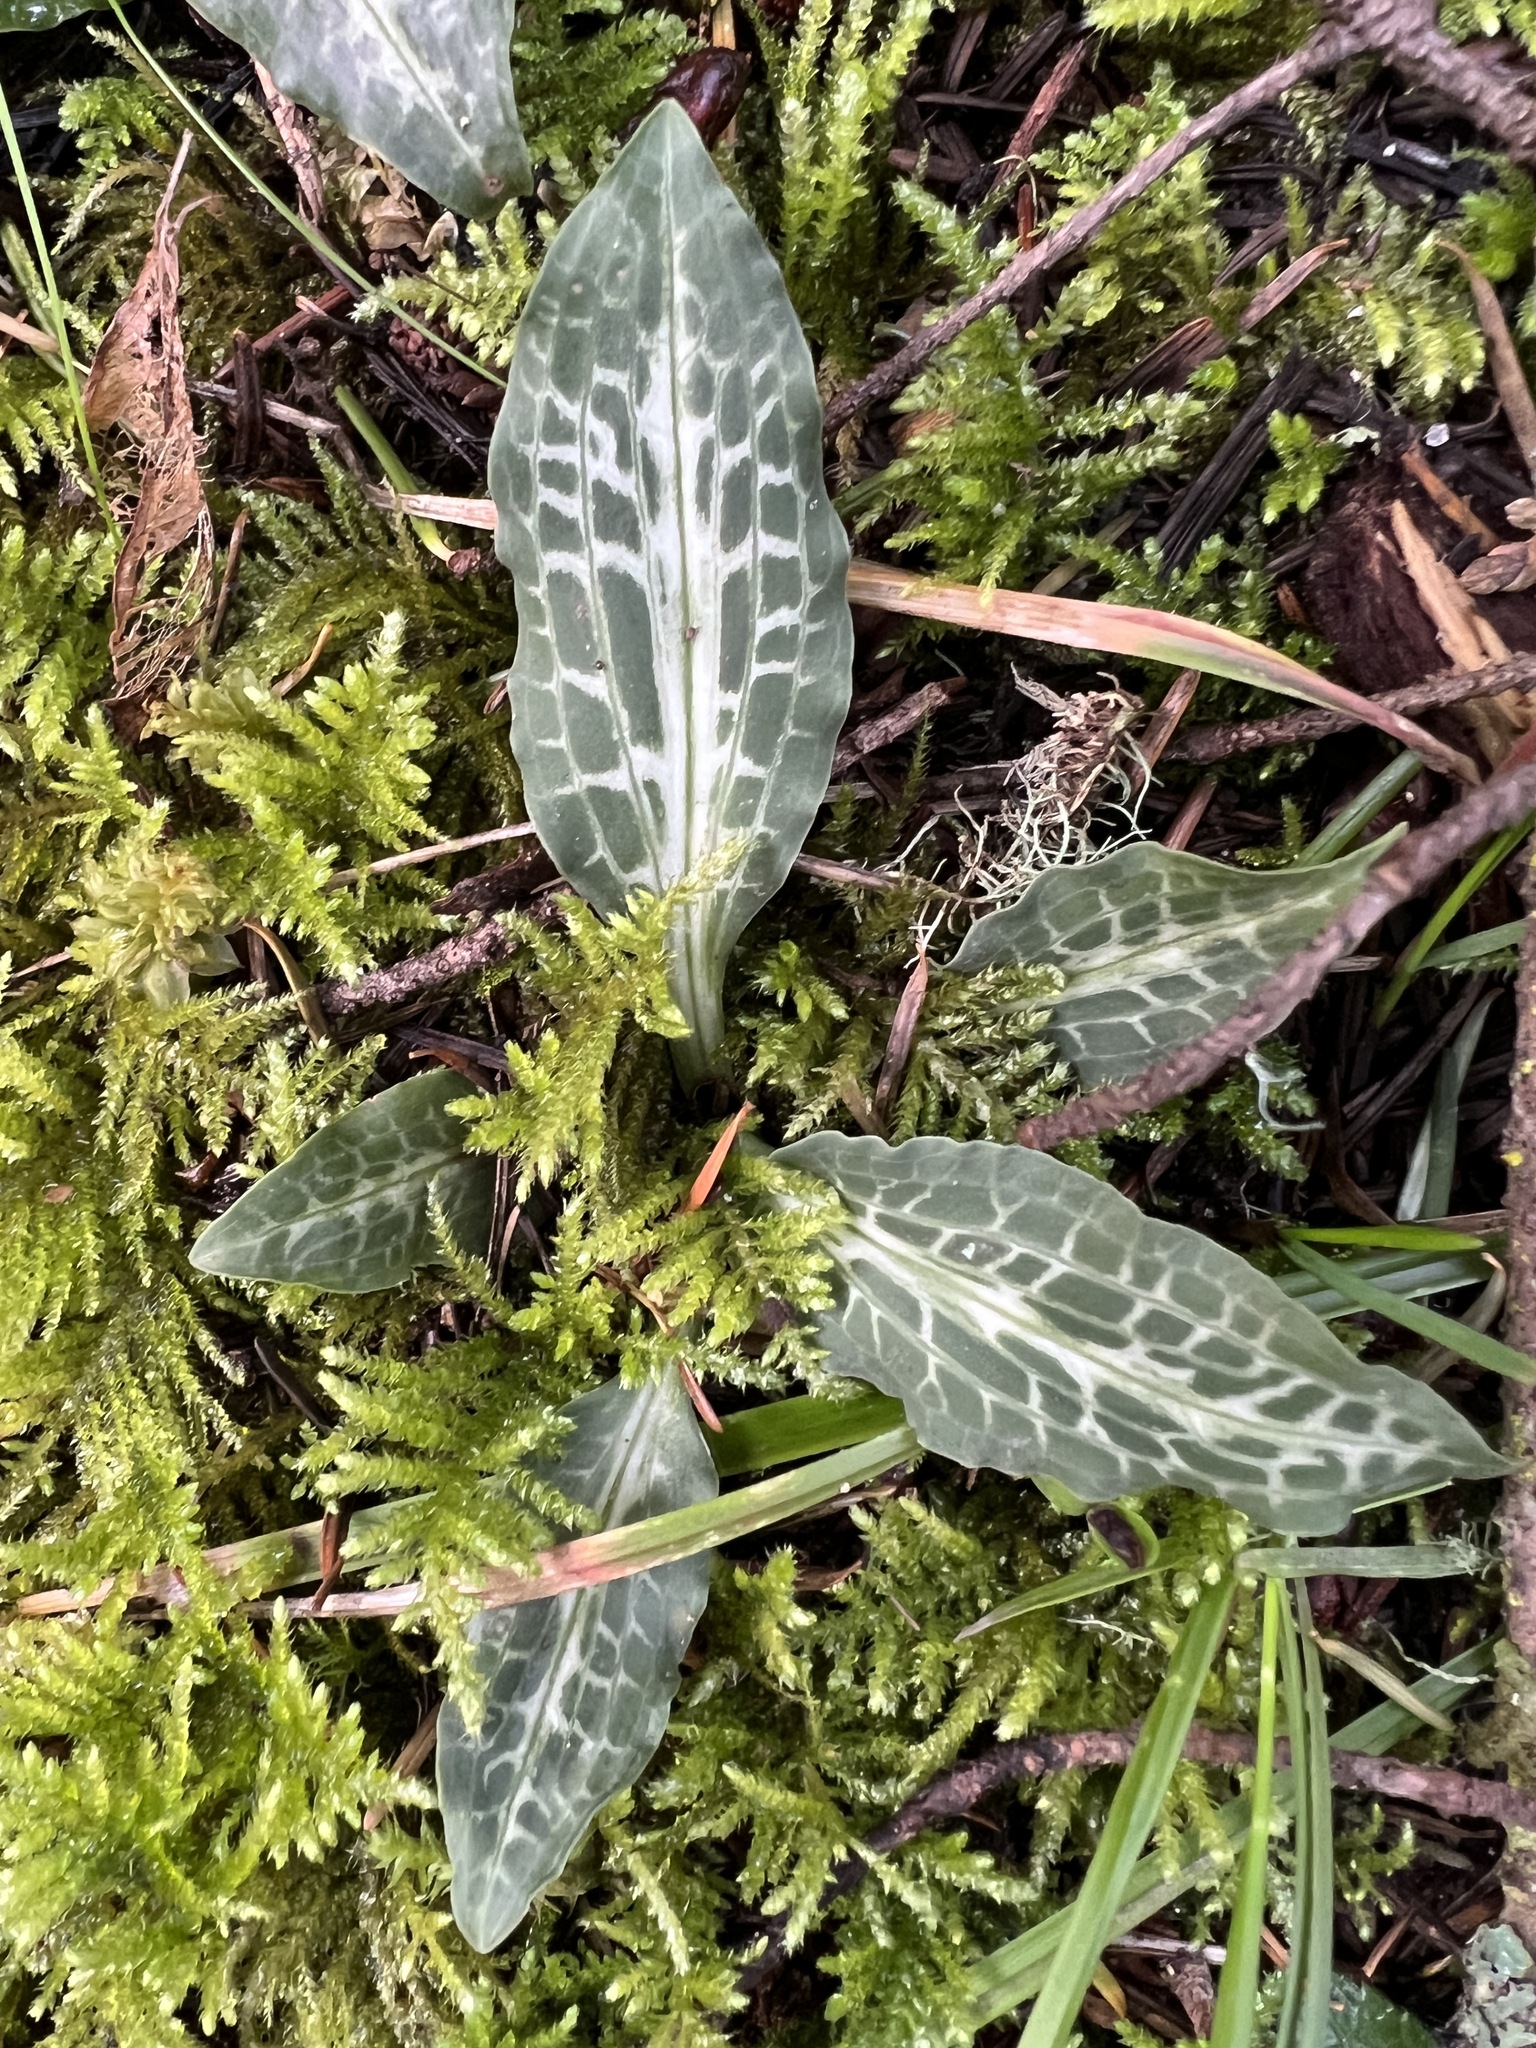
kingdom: Plantae
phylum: Tracheophyta
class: Liliopsida
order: Asparagales
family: Orchidaceae
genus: Goodyera
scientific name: Goodyera oblongifolia
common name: Giant rattlesnake-plantain
